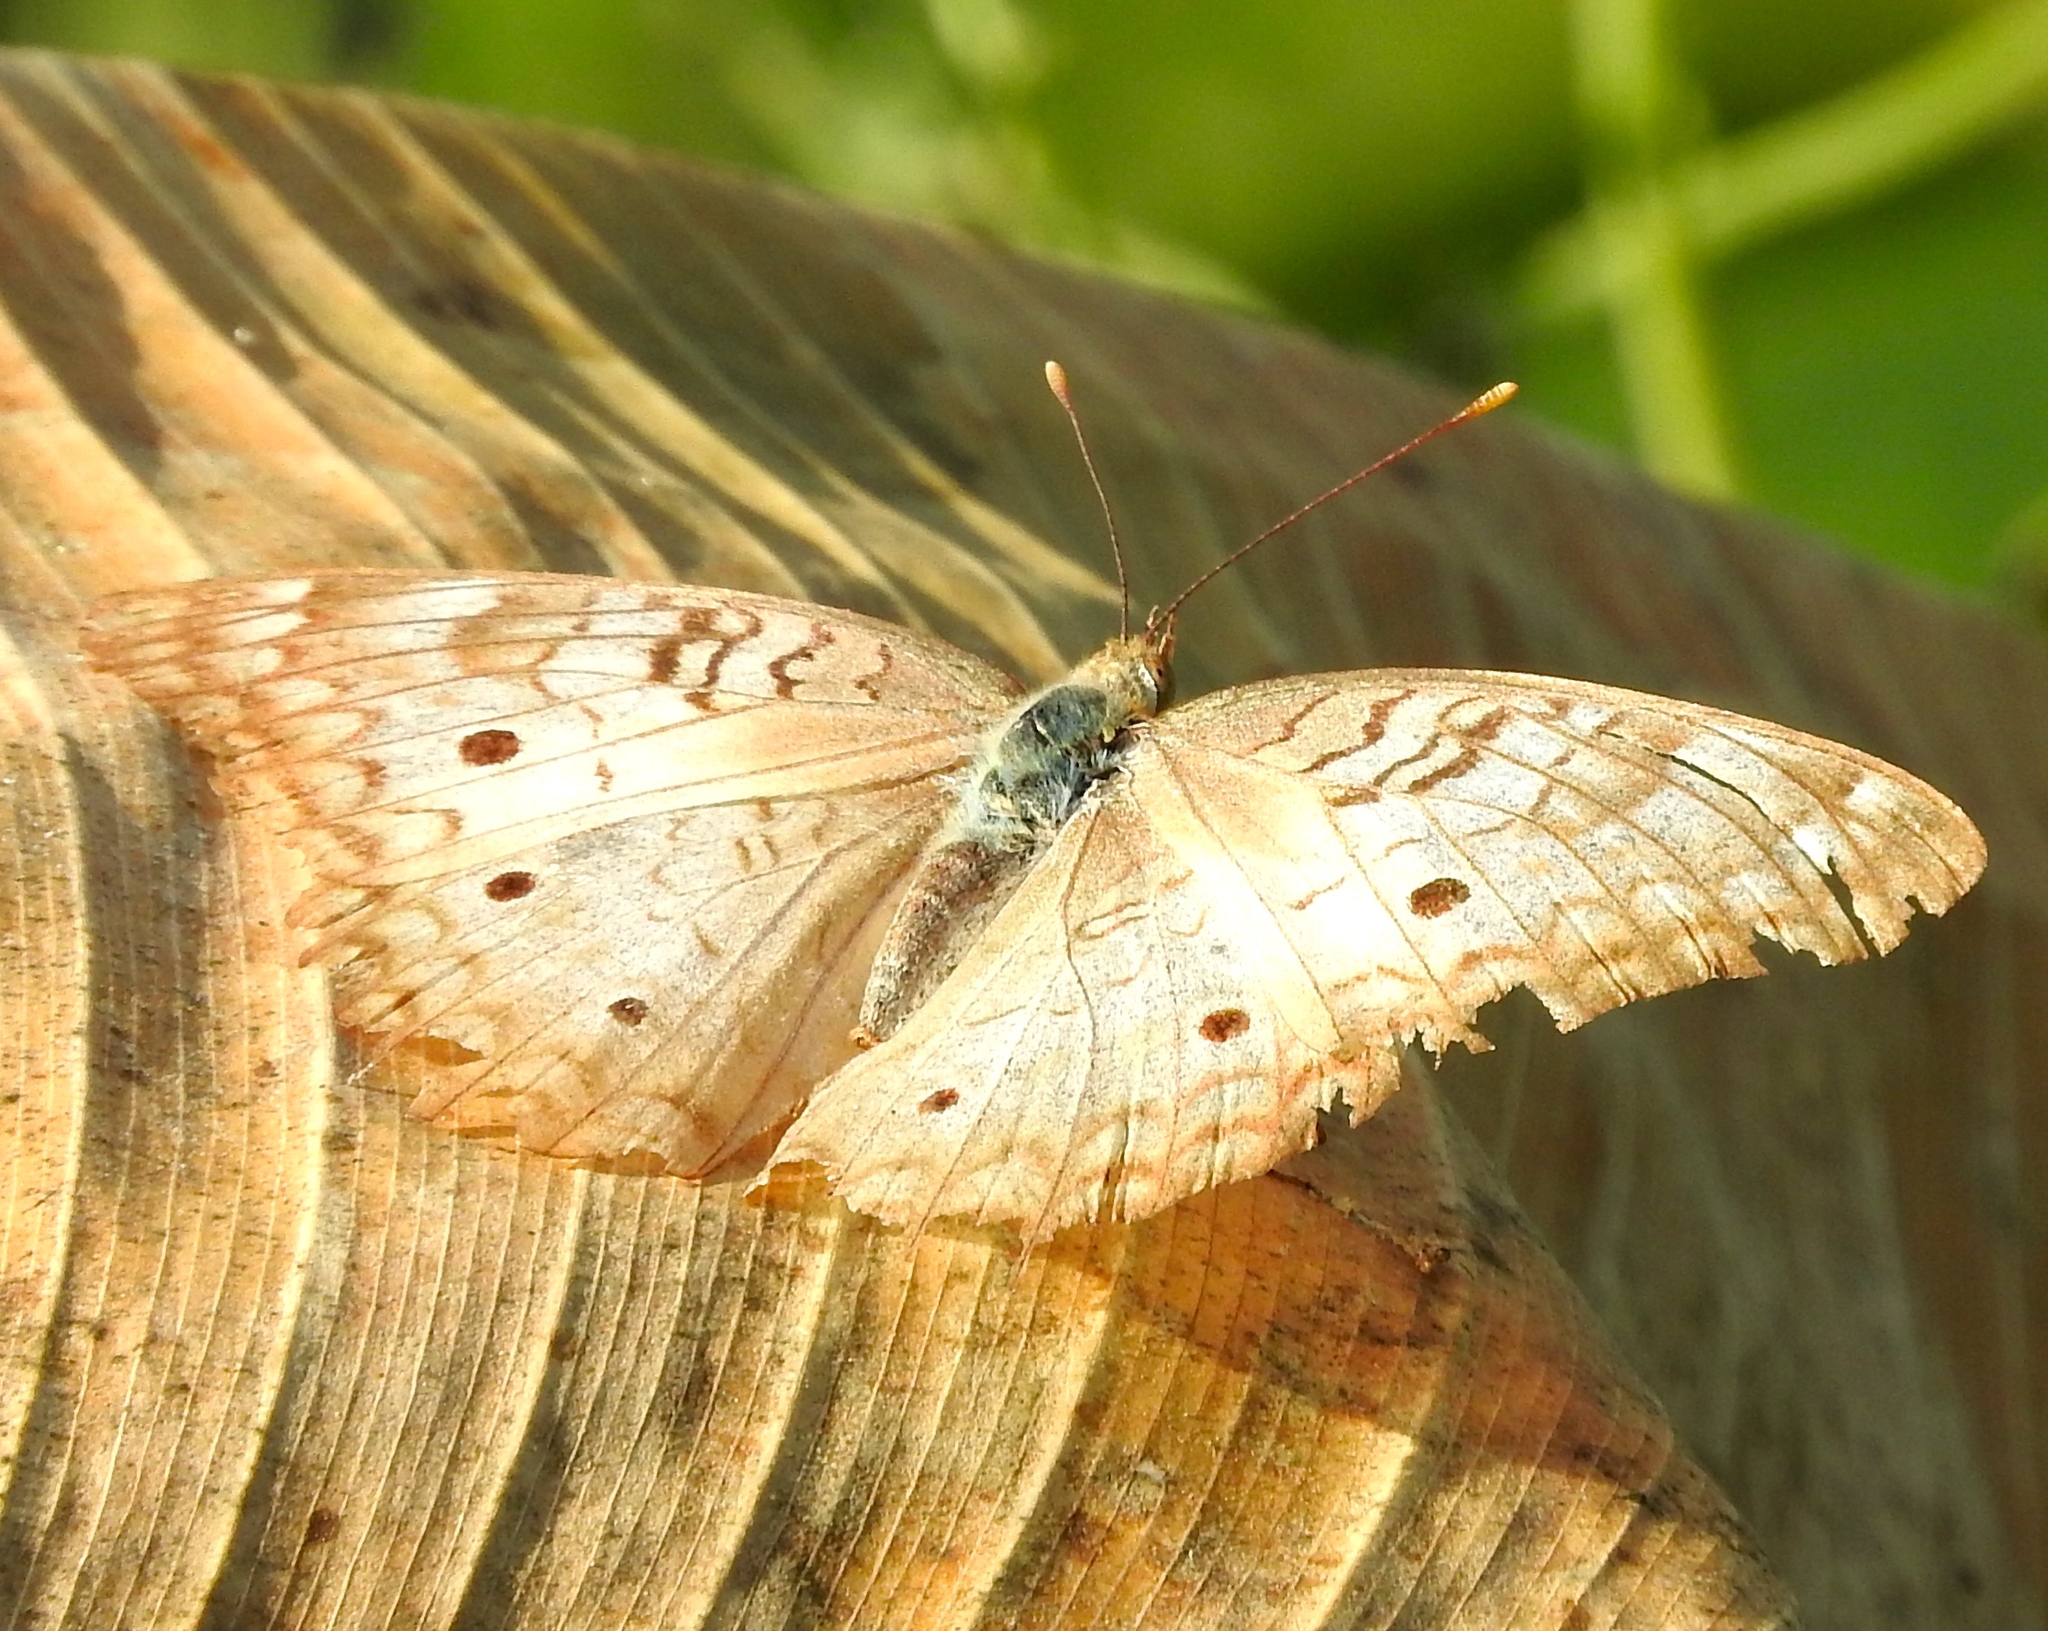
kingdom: Animalia
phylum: Arthropoda
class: Insecta
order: Lepidoptera
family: Nymphalidae
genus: Anartia
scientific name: Anartia jatrophae
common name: White peacock
